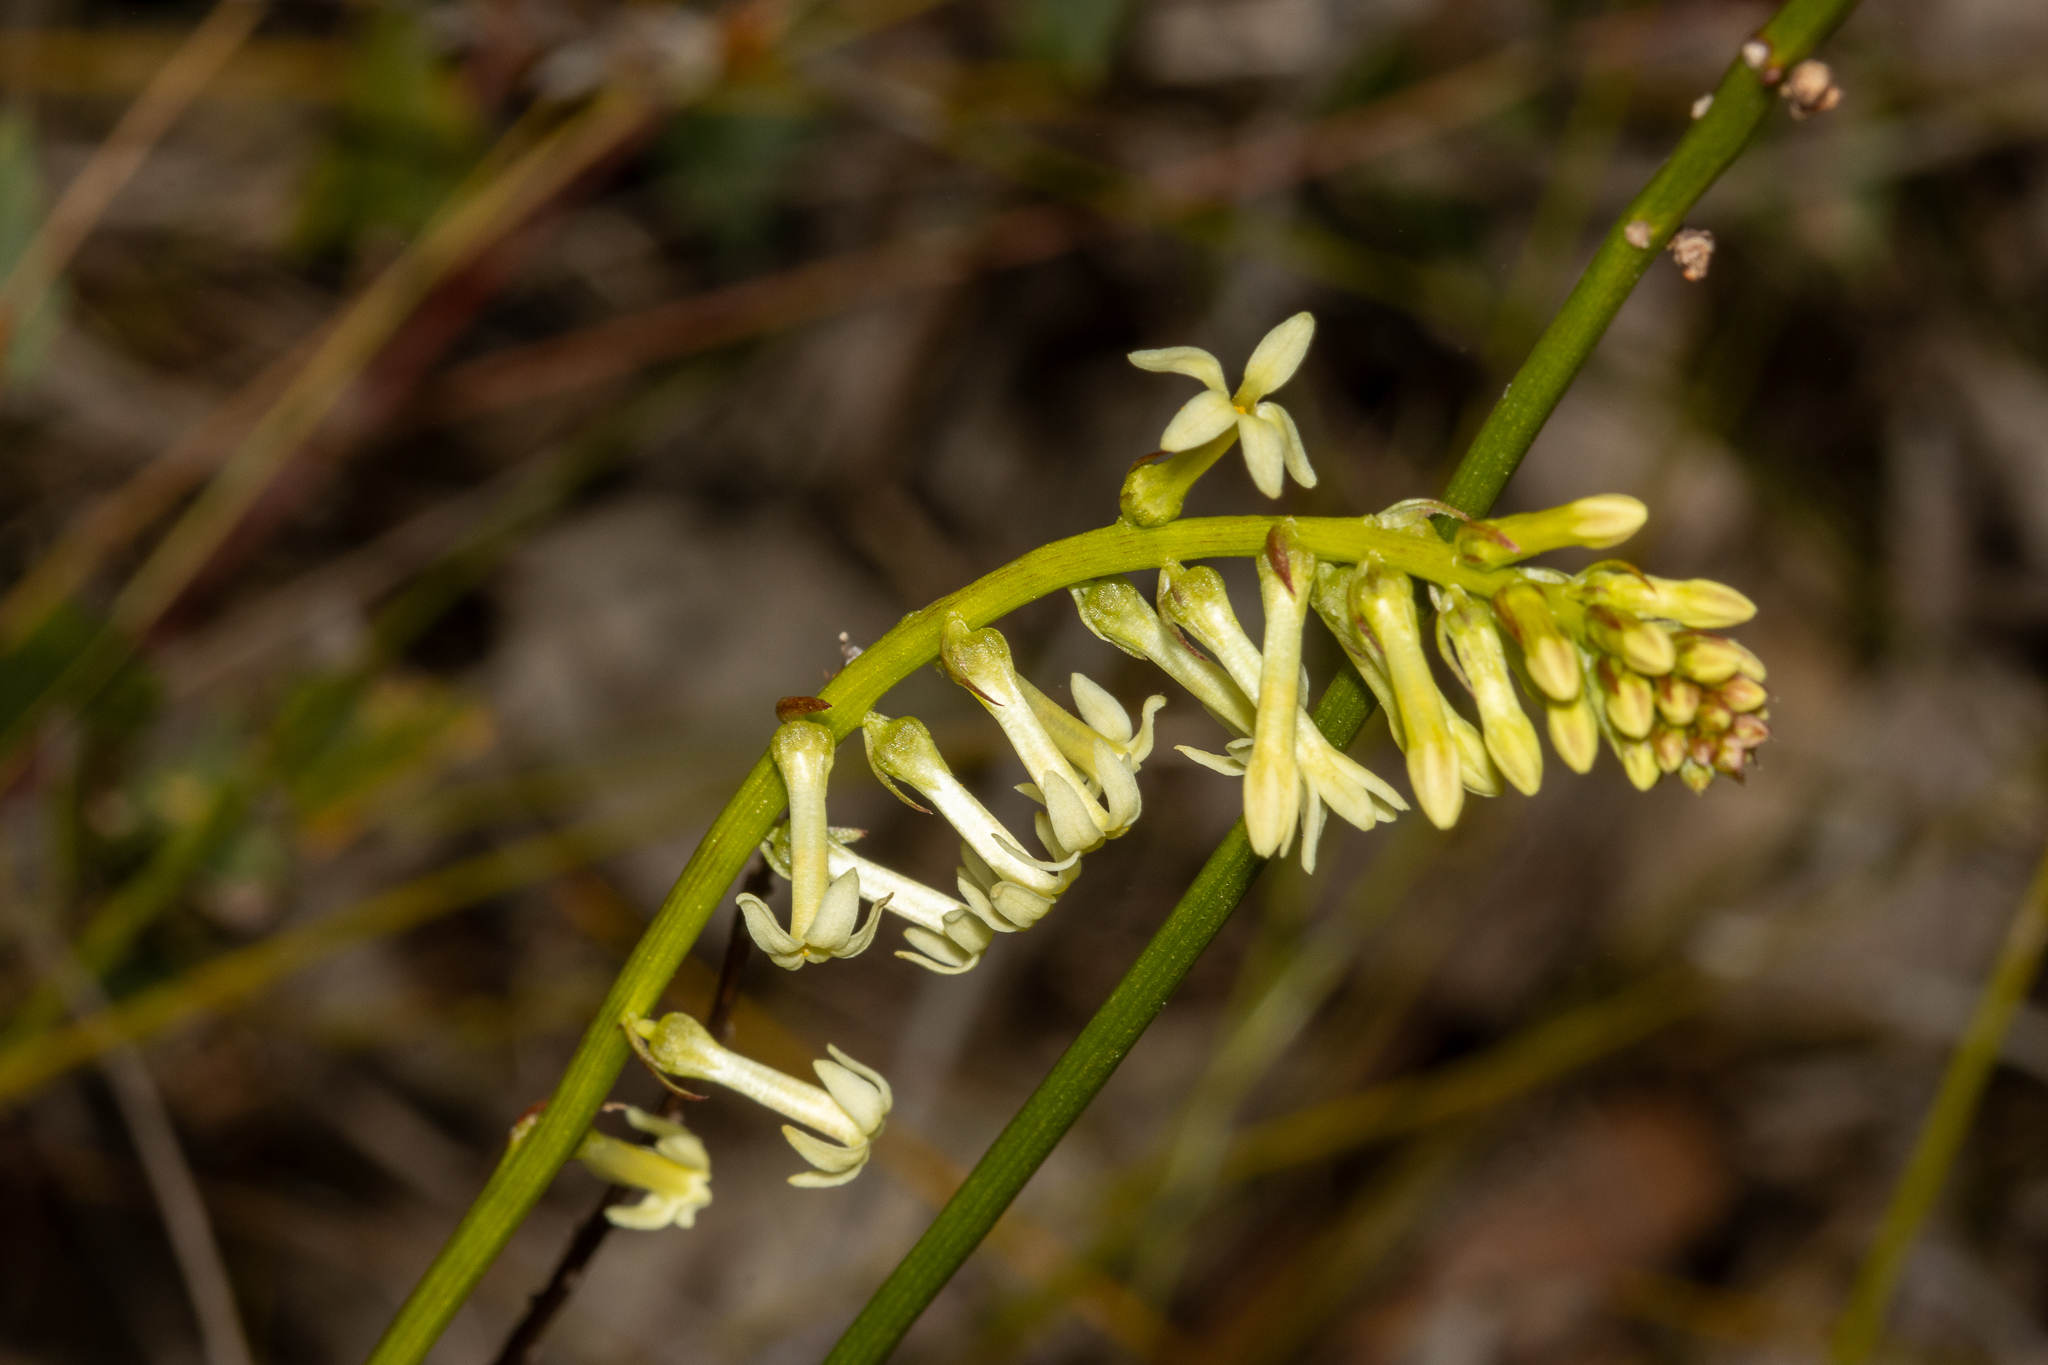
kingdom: Plantae
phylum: Tracheophyta
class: Magnoliopsida
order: Celastrales
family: Celastraceae
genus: Stackhousia
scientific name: Stackhousia monogyna
